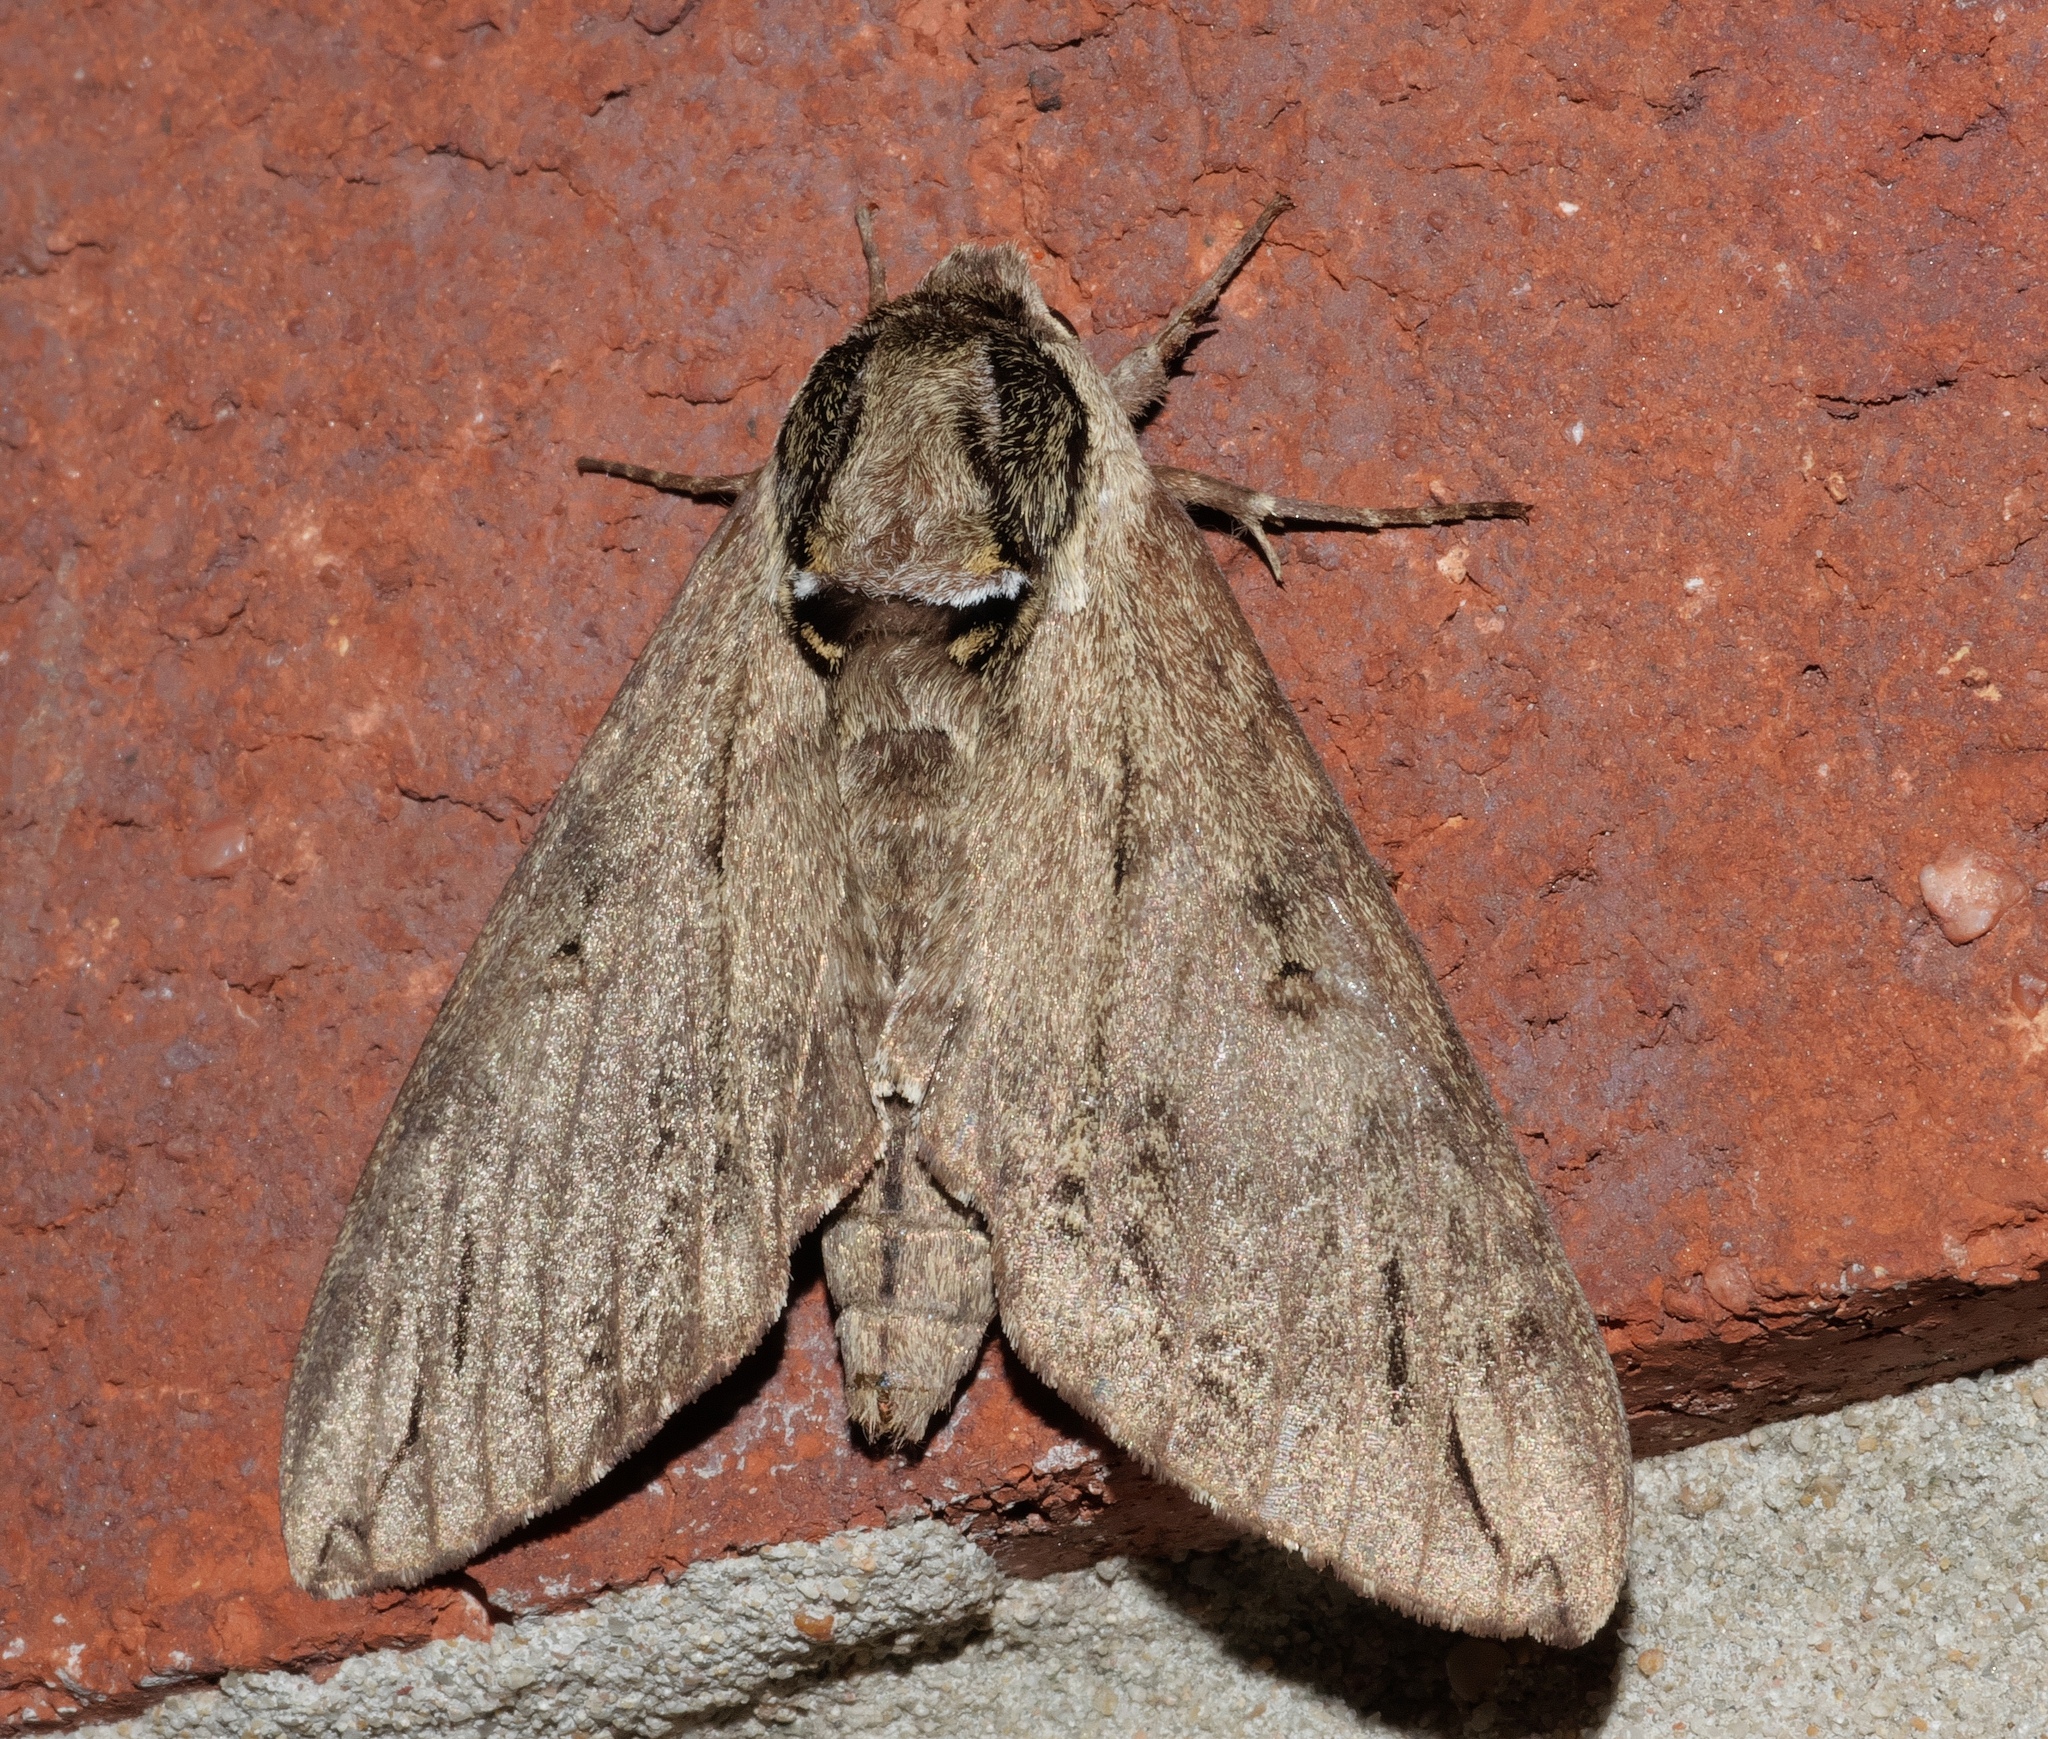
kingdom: Animalia
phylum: Arthropoda
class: Insecta
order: Lepidoptera
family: Sphingidae
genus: Ceratomia
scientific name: Ceratomia catalpae
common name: Catalpa hornworm
